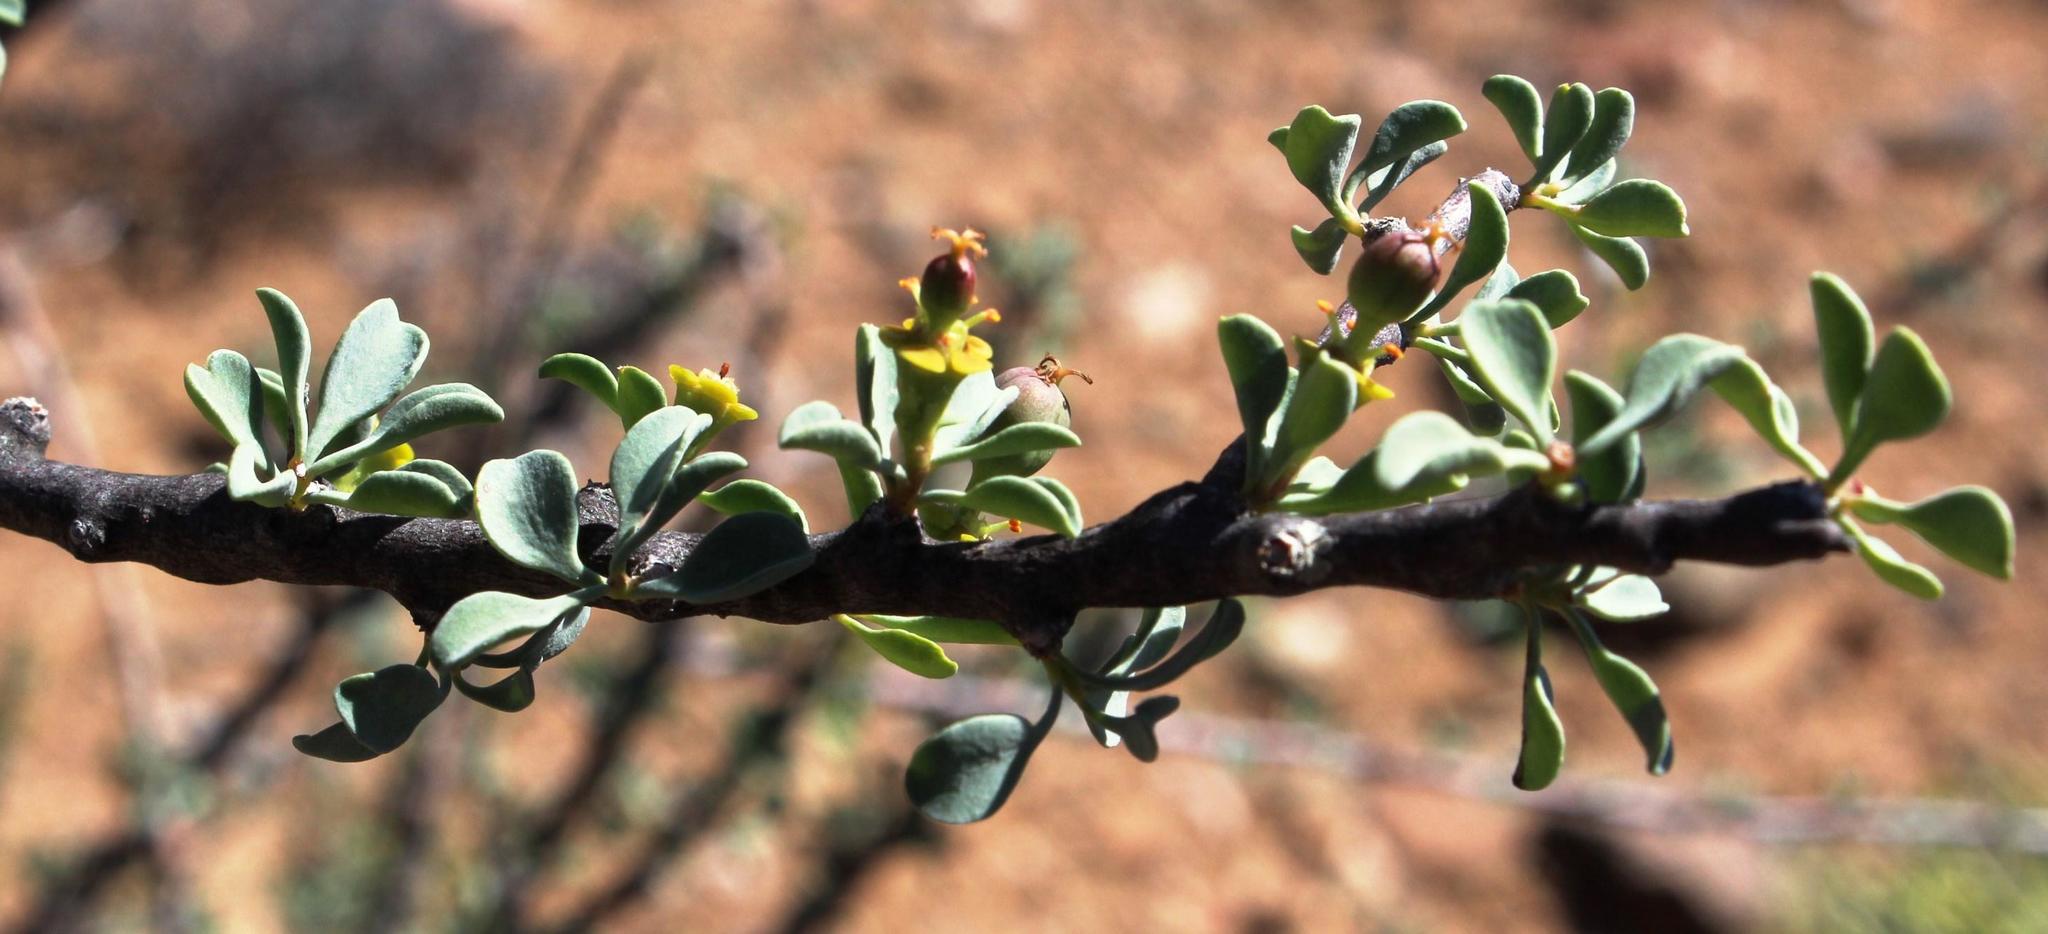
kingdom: Plantae
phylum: Tracheophyta
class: Magnoliopsida
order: Malpighiales
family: Euphorbiaceae
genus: Euphorbia
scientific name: Euphorbia guerichiana
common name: Paper-barked milkbush
